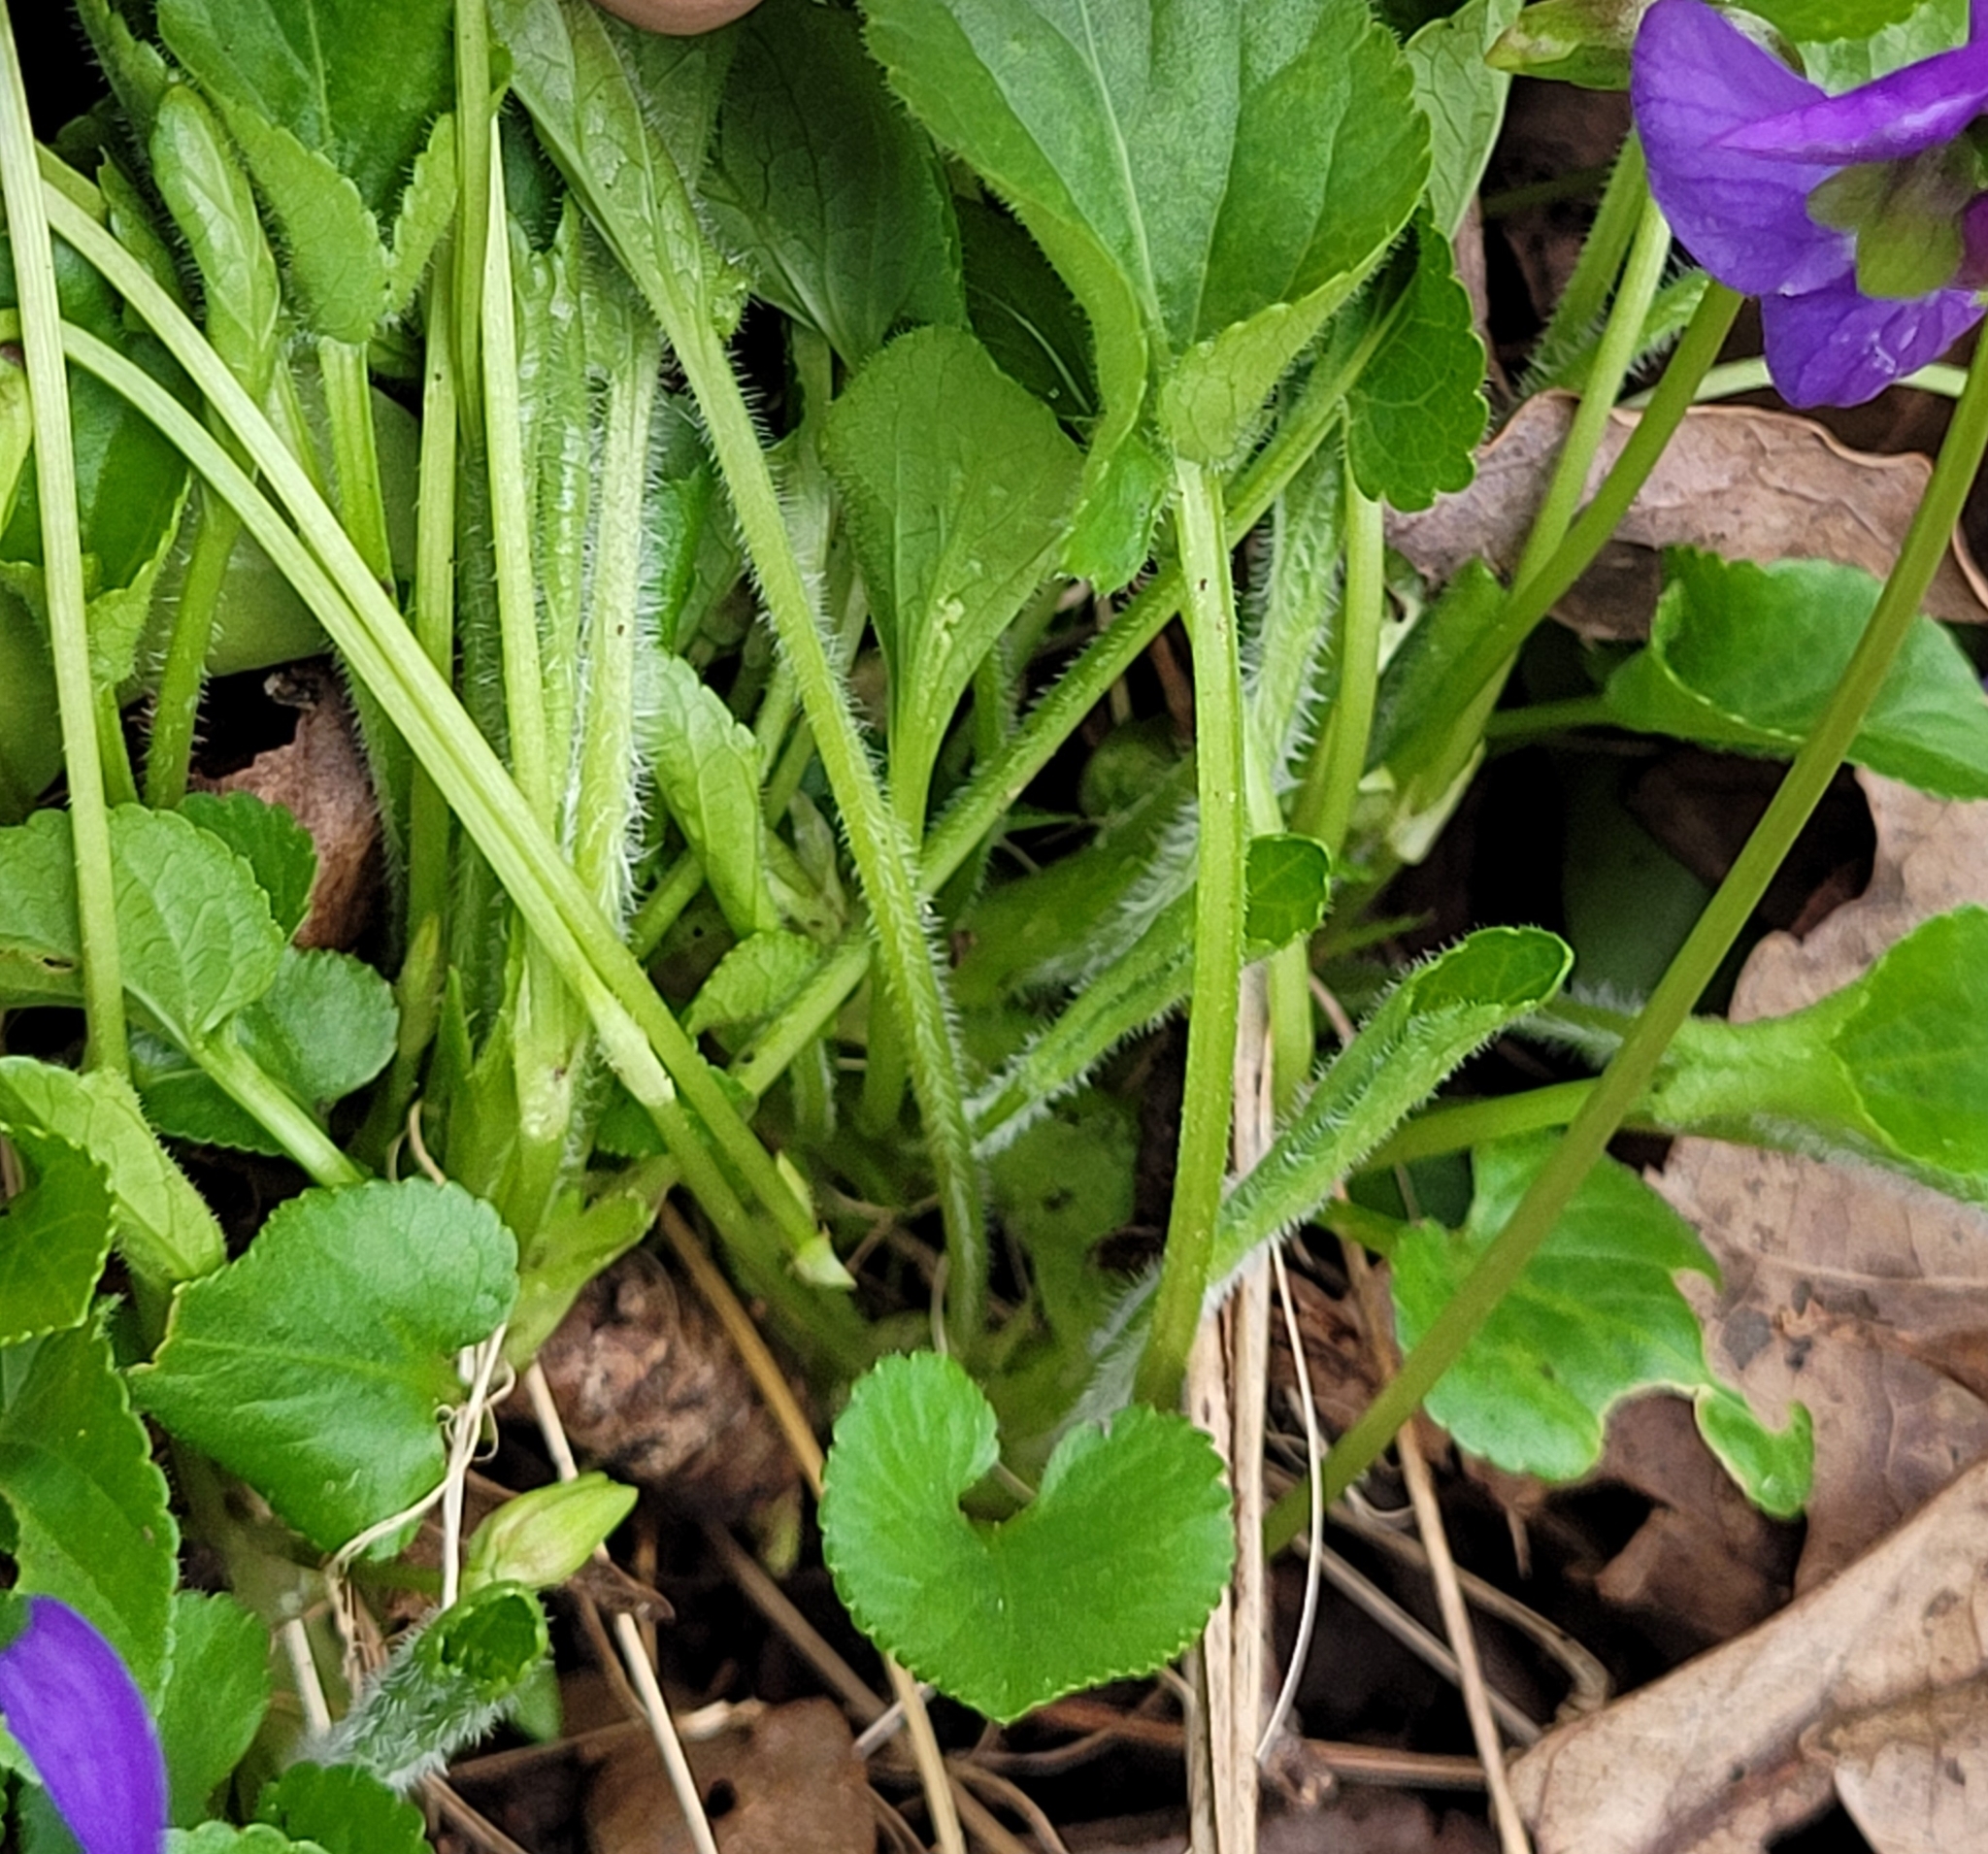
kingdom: Plantae
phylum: Tracheophyta
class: Magnoliopsida
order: Malpighiales
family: Violaceae
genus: Viola
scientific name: Viola hirta
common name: Hairy violet
